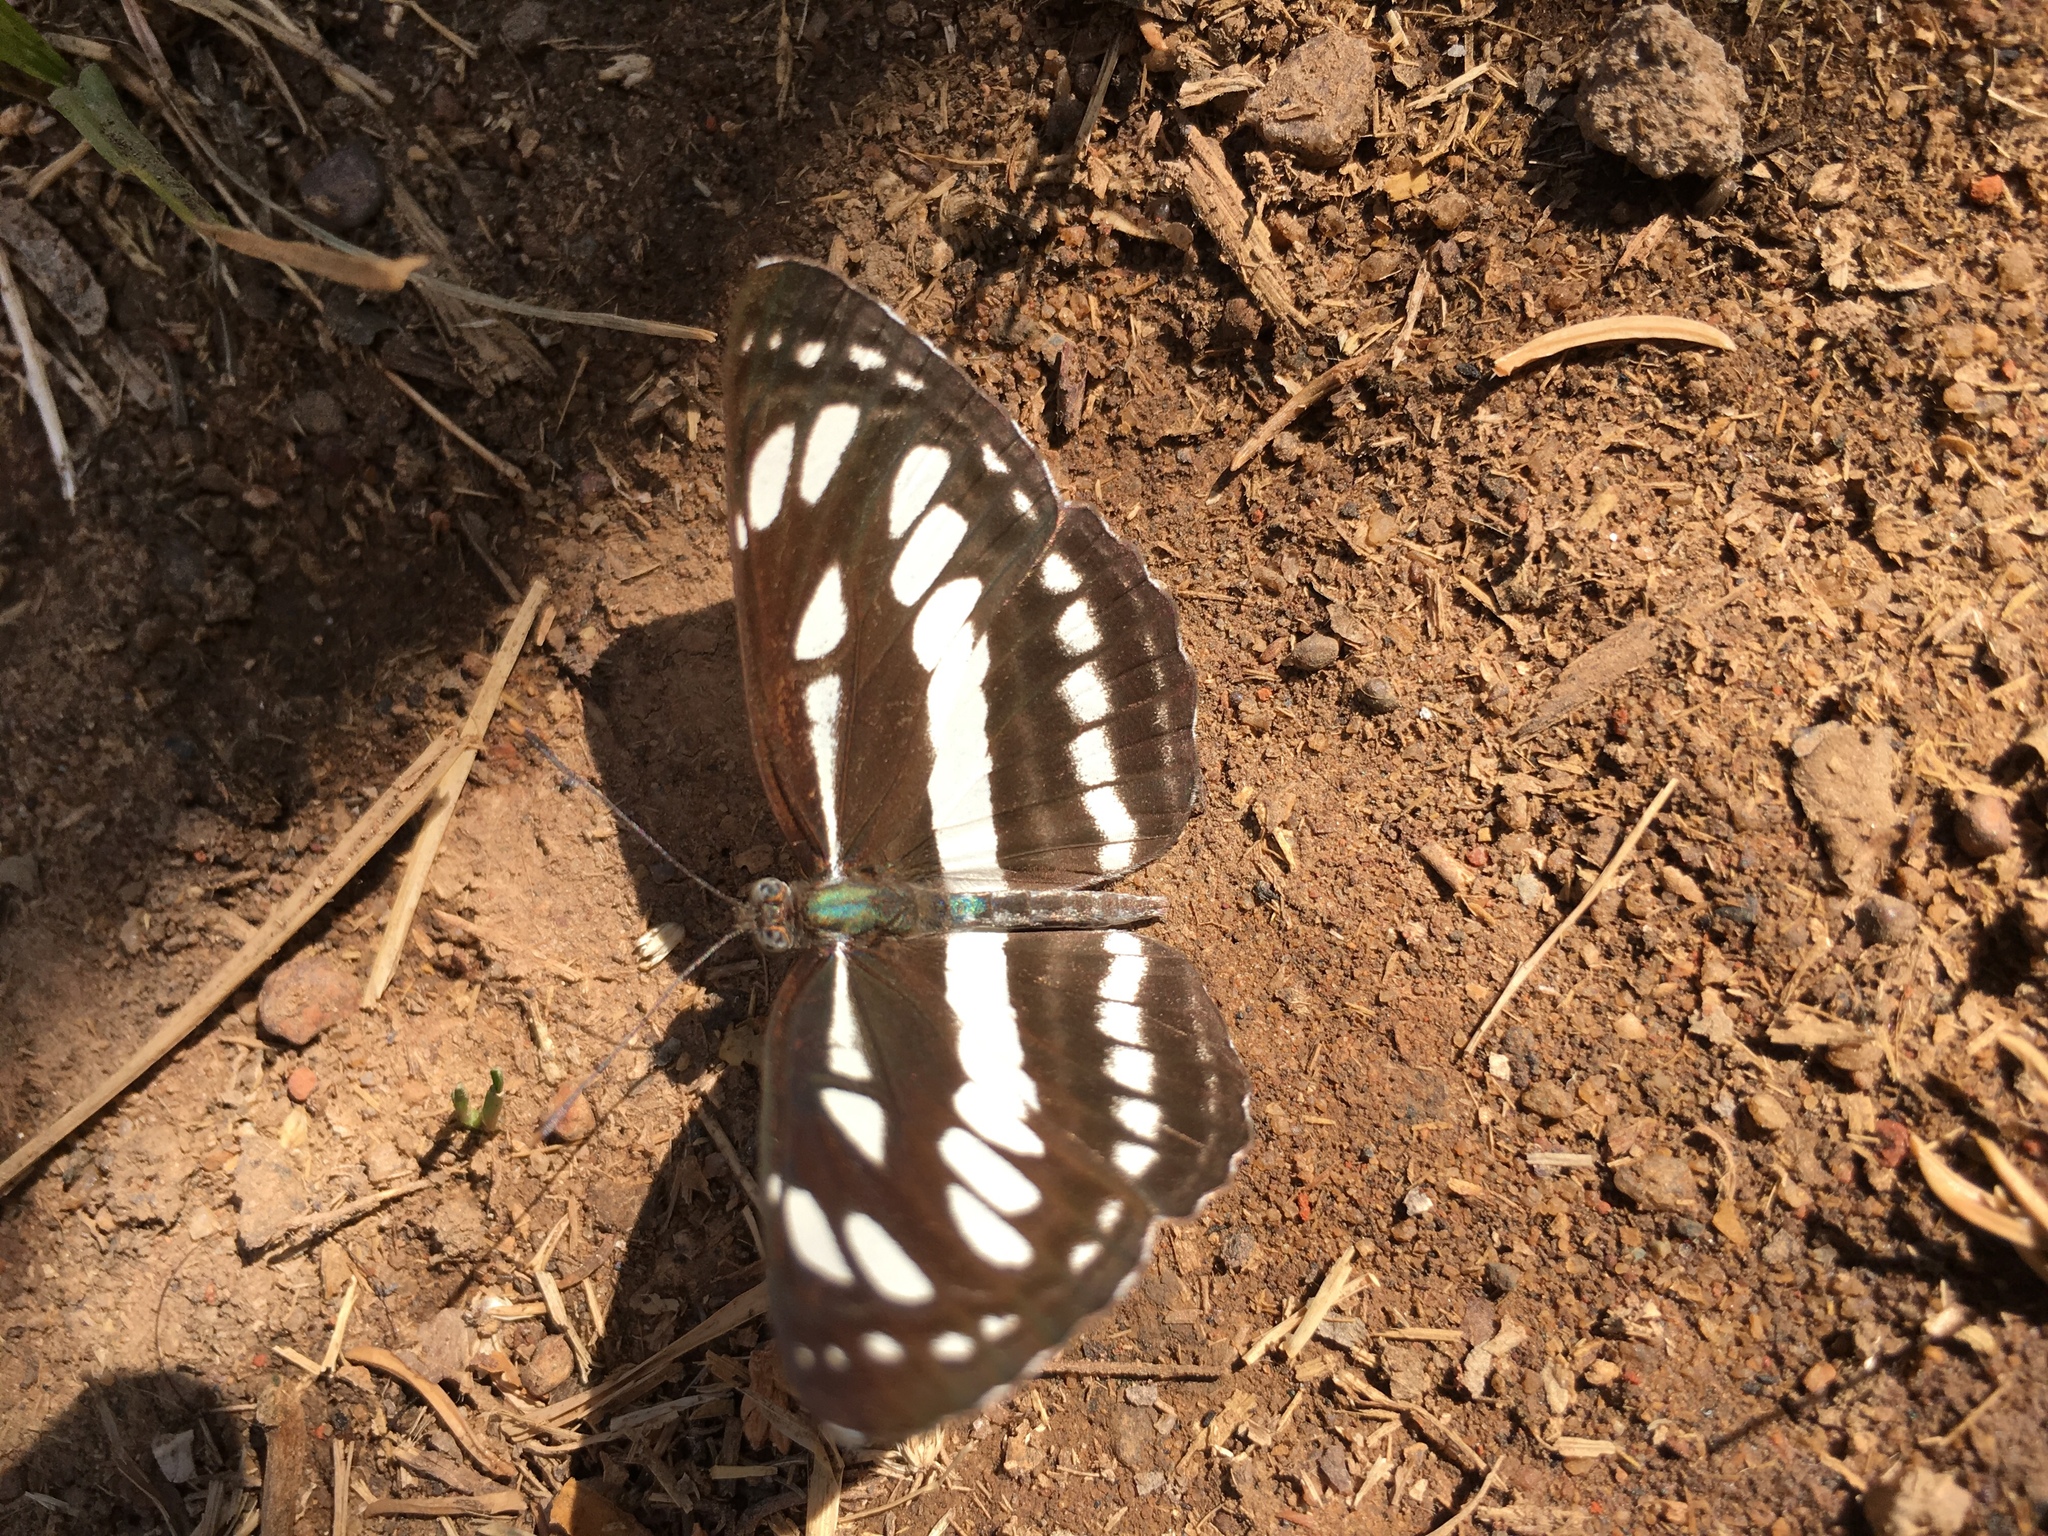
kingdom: Animalia
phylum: Arthropoda
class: Insecta
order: Lepidoptera
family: Nymphalidae
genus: Neptis
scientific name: Neptis hylas
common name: Common sailer
